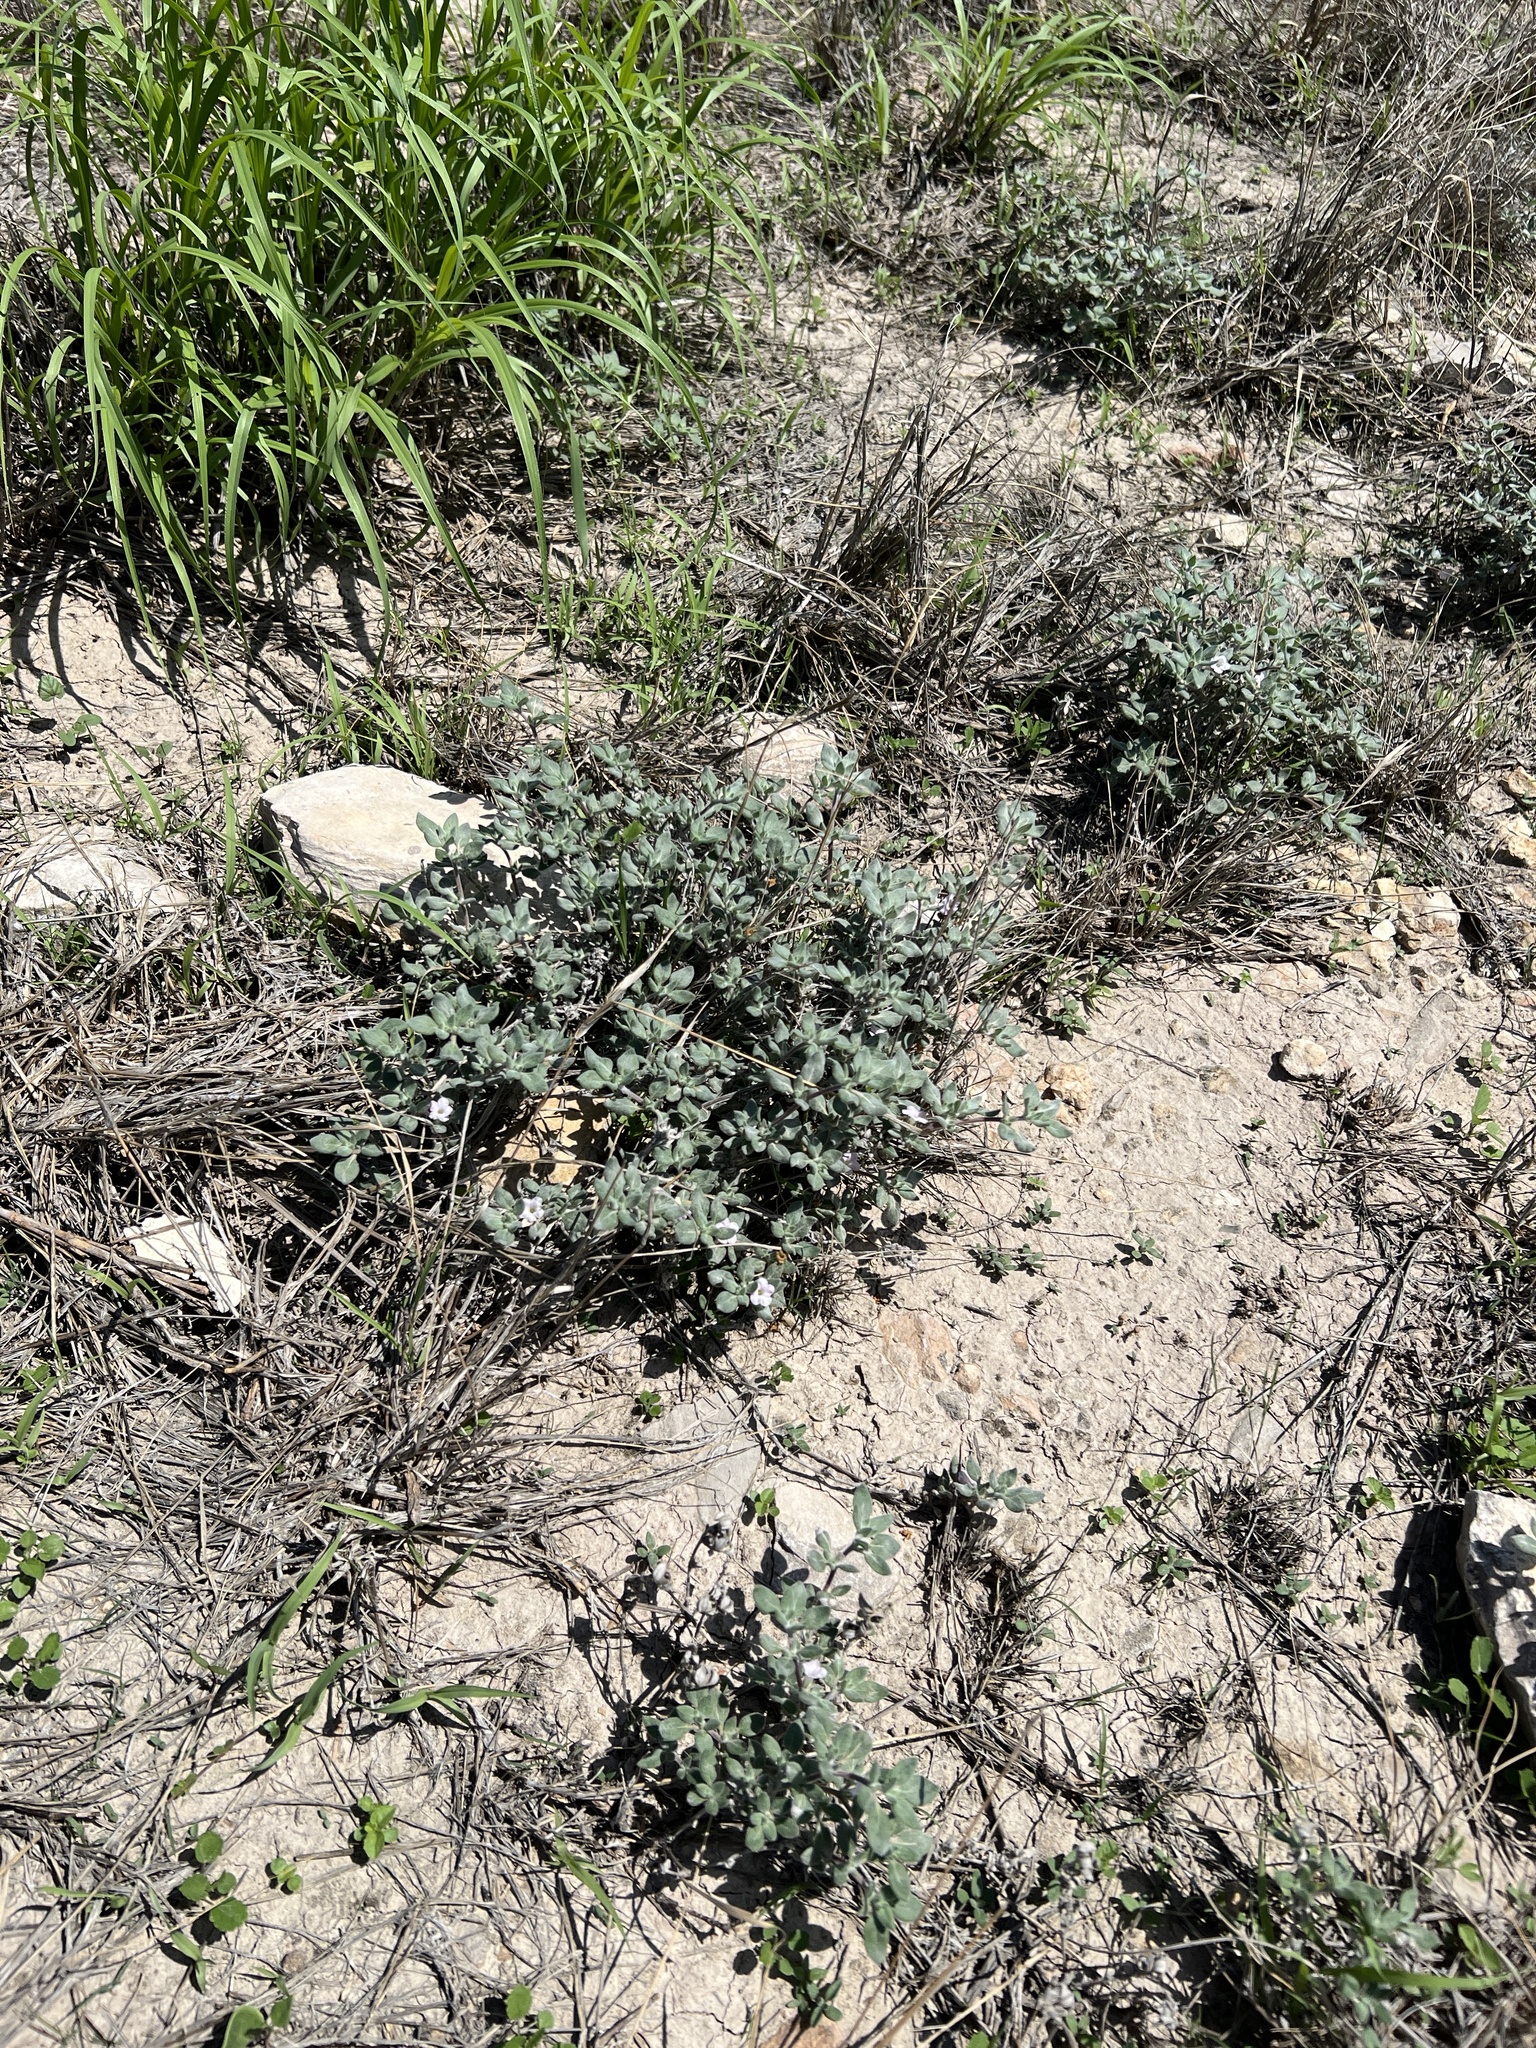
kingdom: Plantae
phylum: Tracheophyta
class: Magnoliopsida
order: Boraginales
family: Ehretiaceae
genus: Tiquilia
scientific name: Tiquilia canescens
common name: Hairy tiquilia
